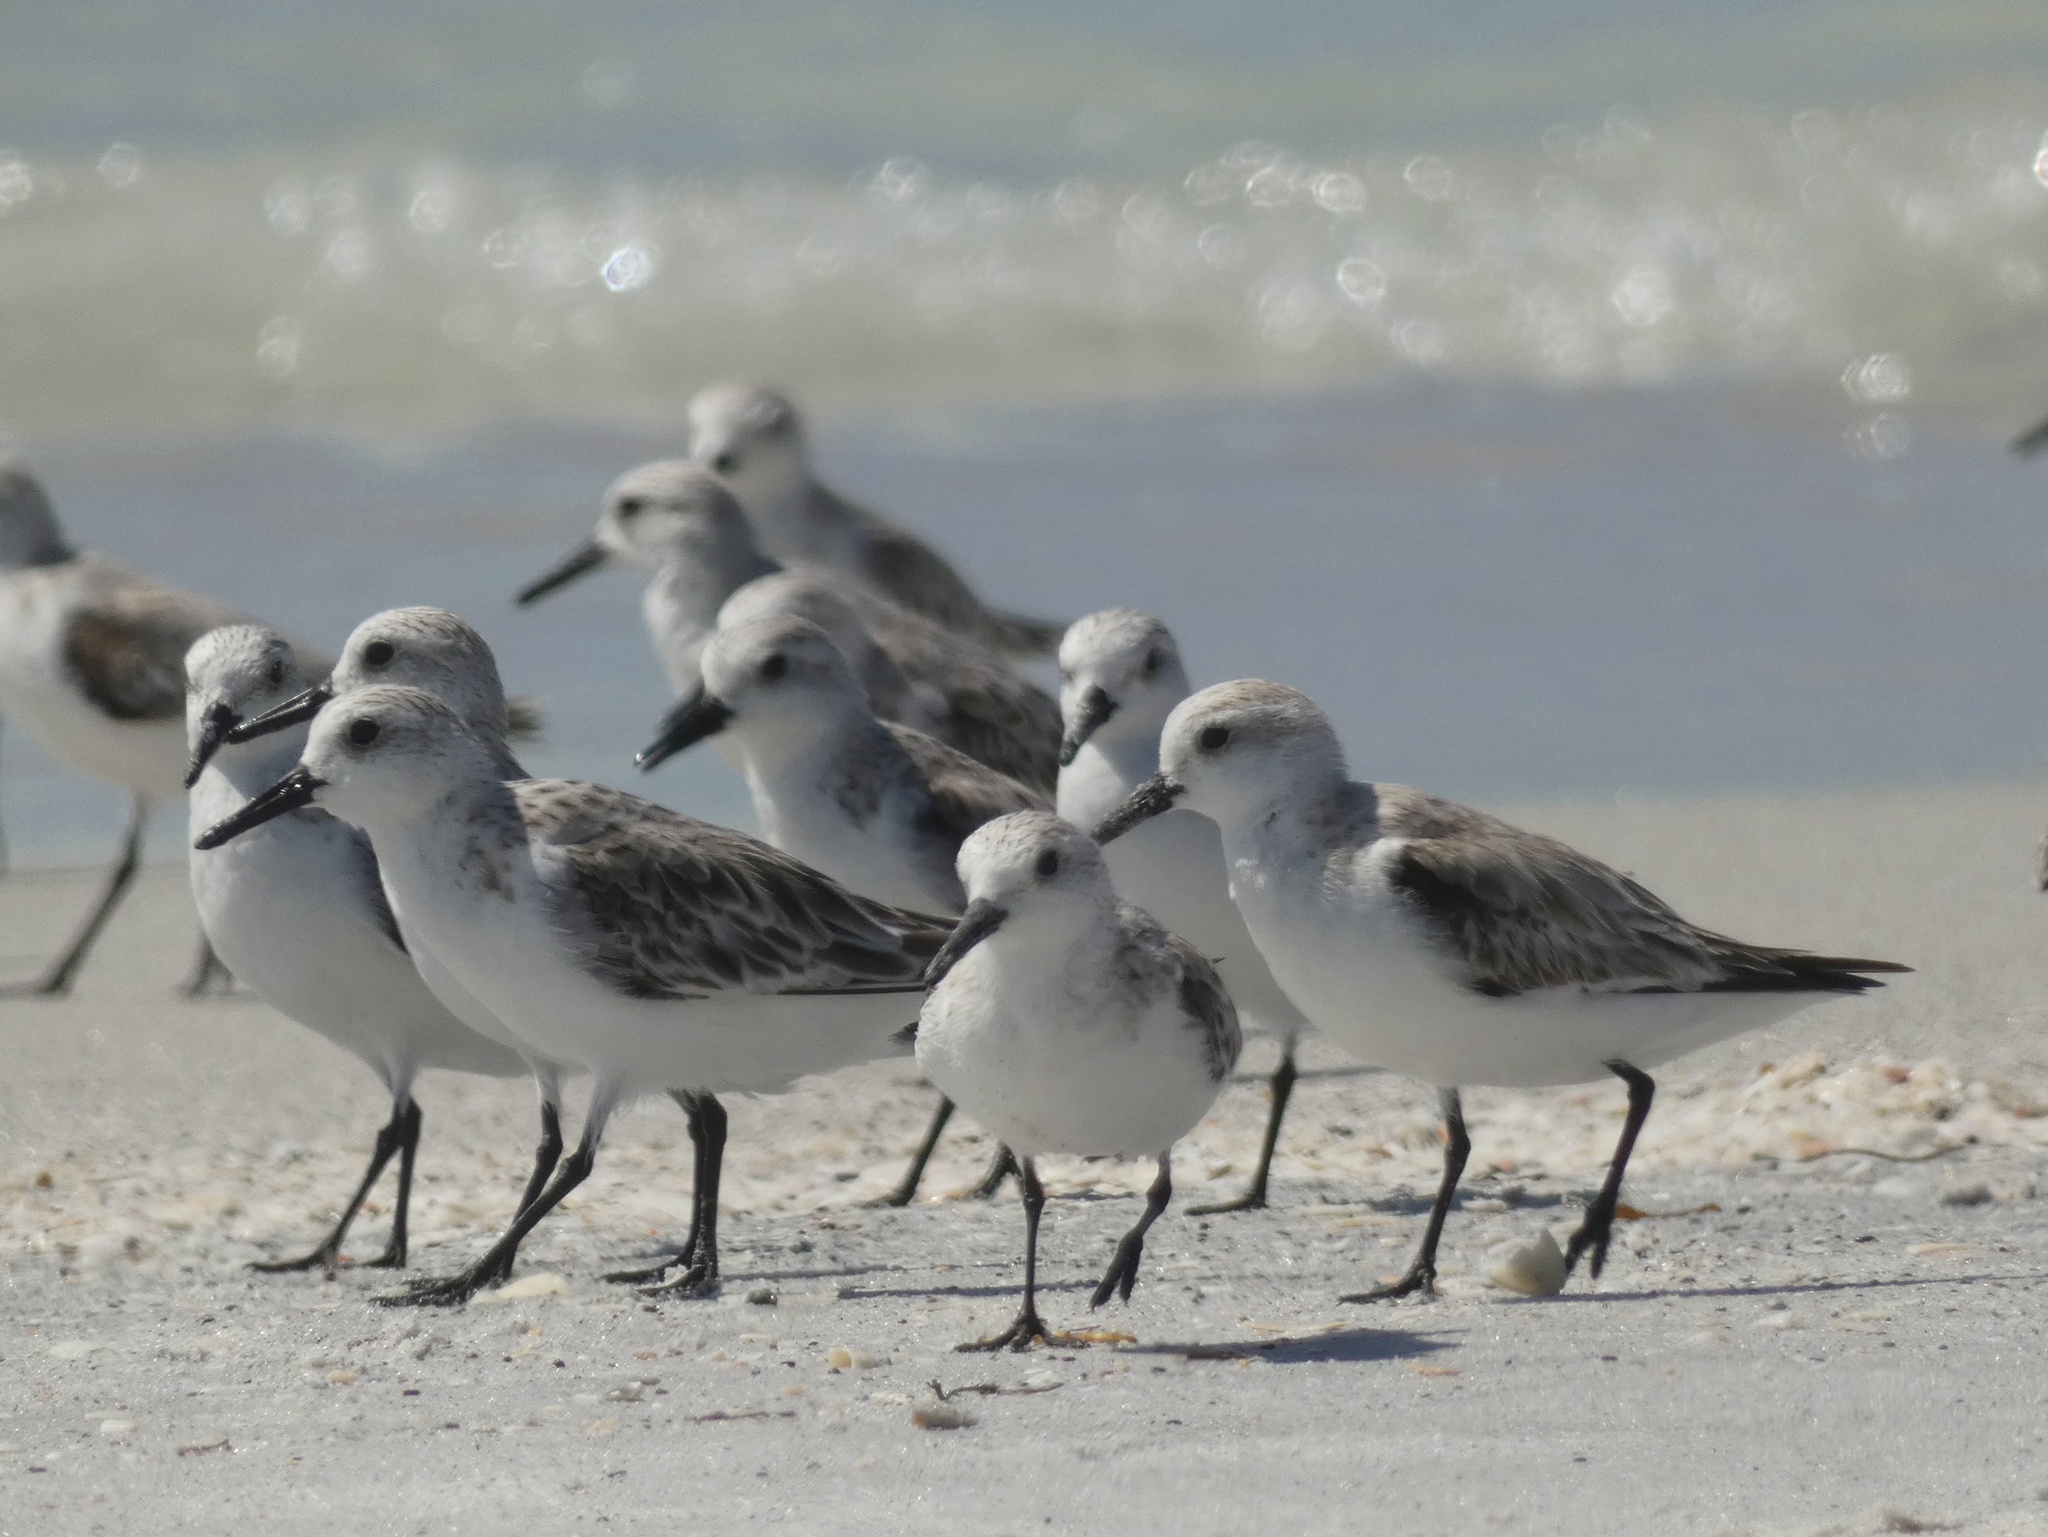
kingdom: Animalia
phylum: Chordata
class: Aves
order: Charadriiformes
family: Scolopacidae
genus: Calidris
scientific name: Calidris alba
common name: Sanderling
